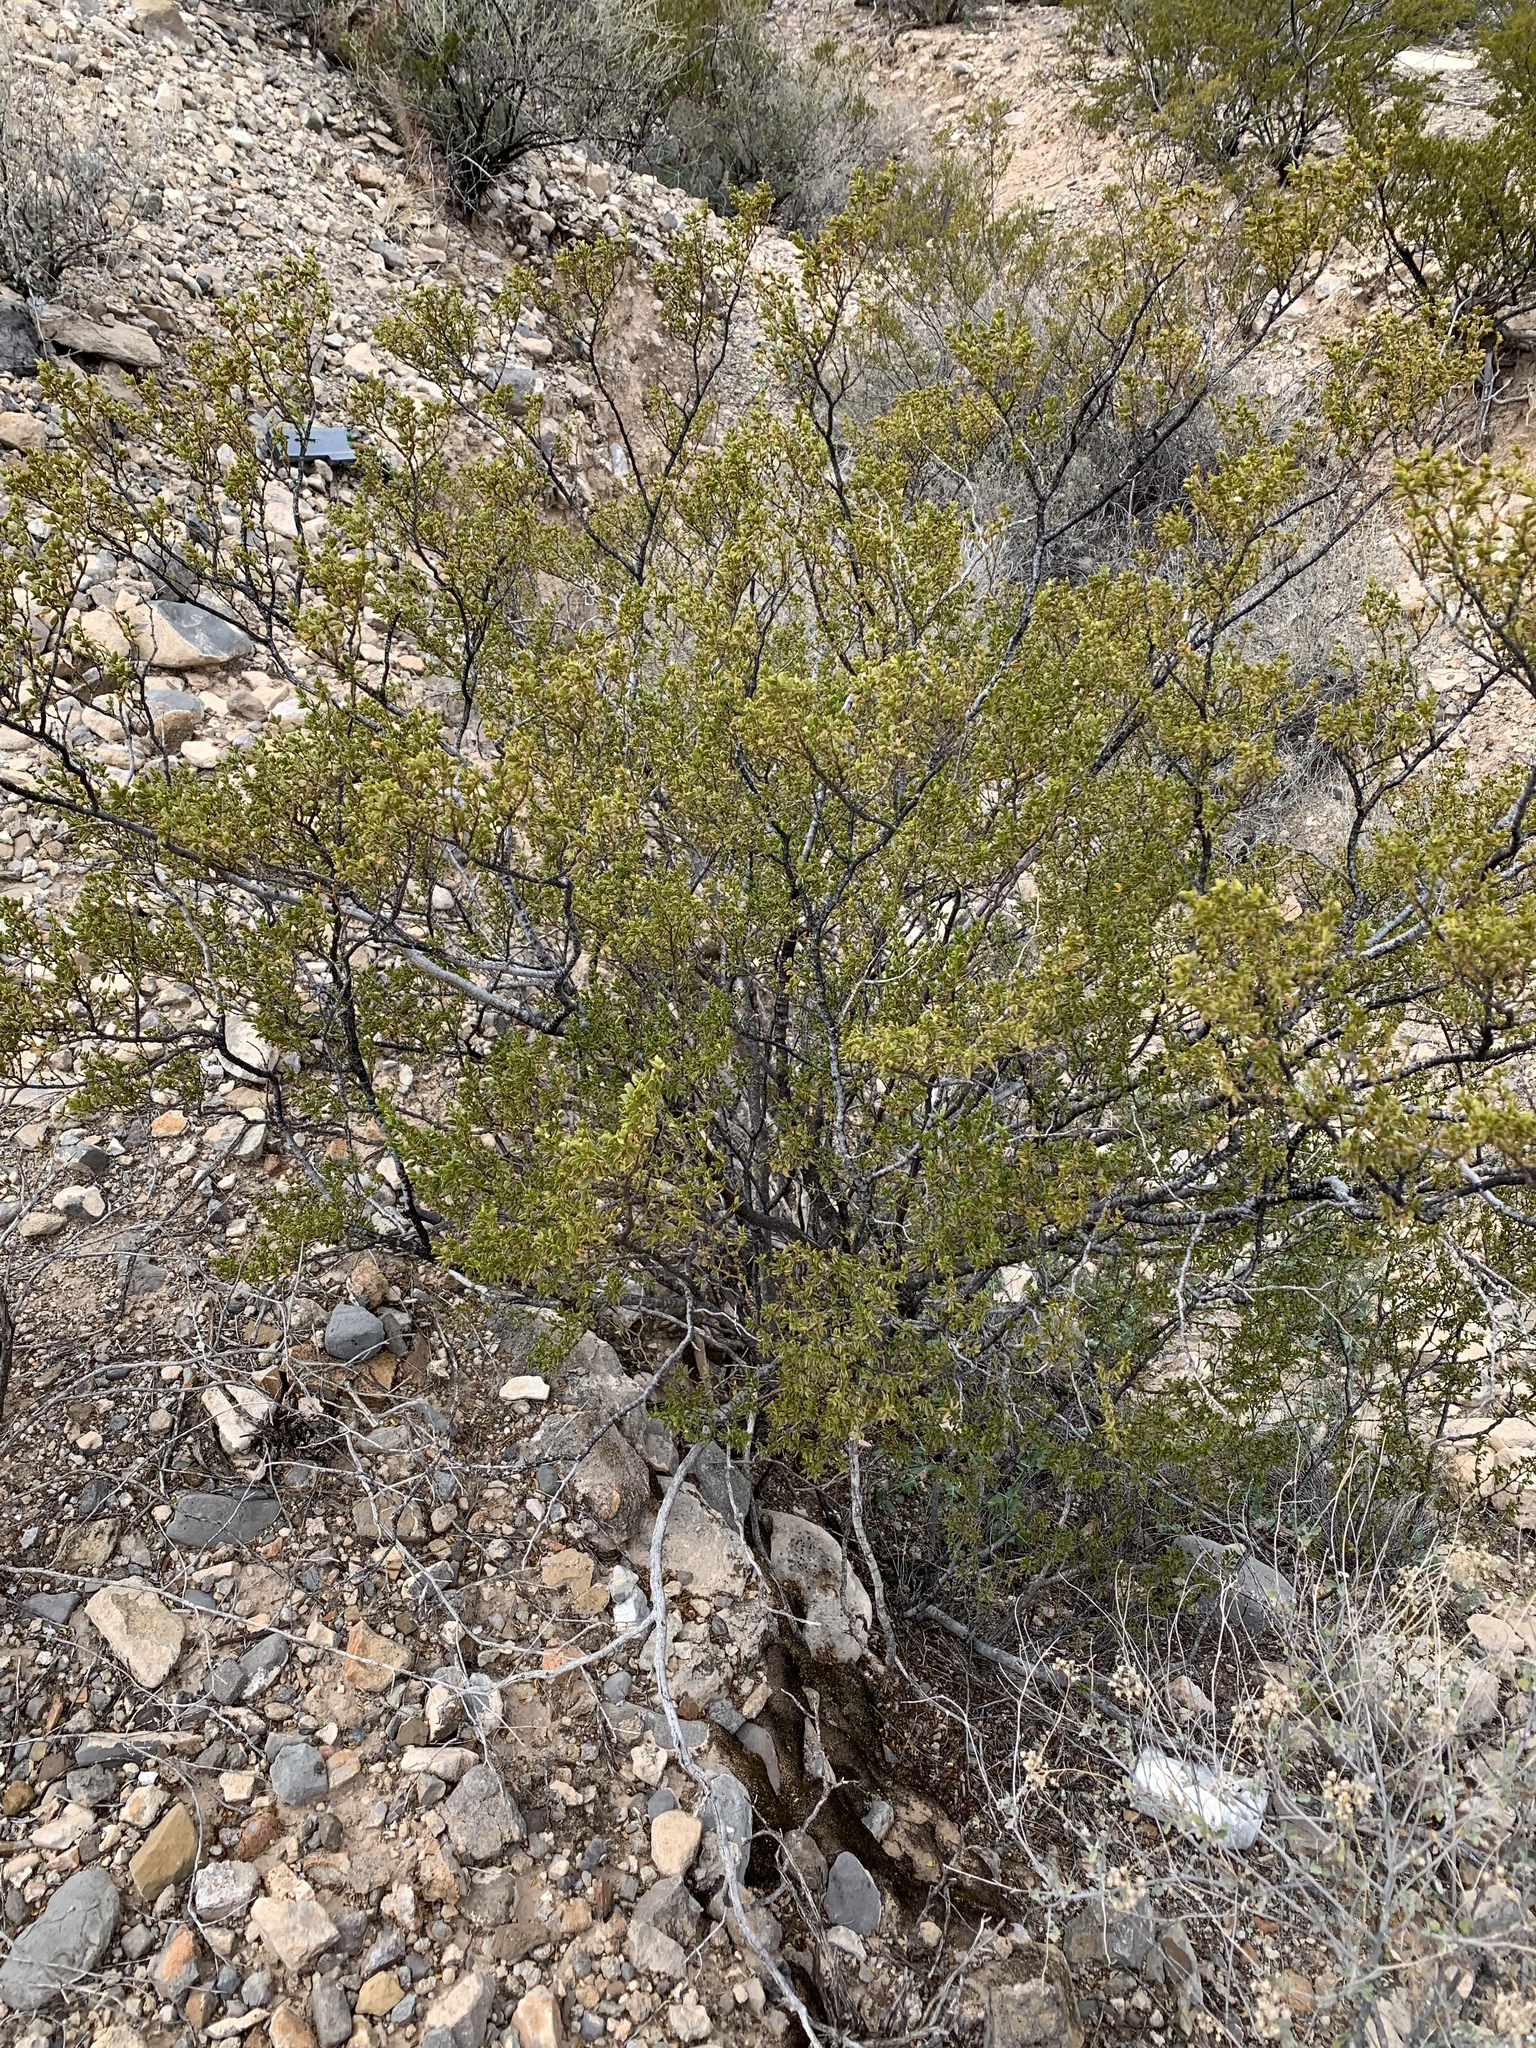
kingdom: Plantae
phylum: Tracheophyta
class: Magnoliopsida
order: Zygophyllales
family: Zygophyllaceae
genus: Larrea
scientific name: Larrea tridentata
